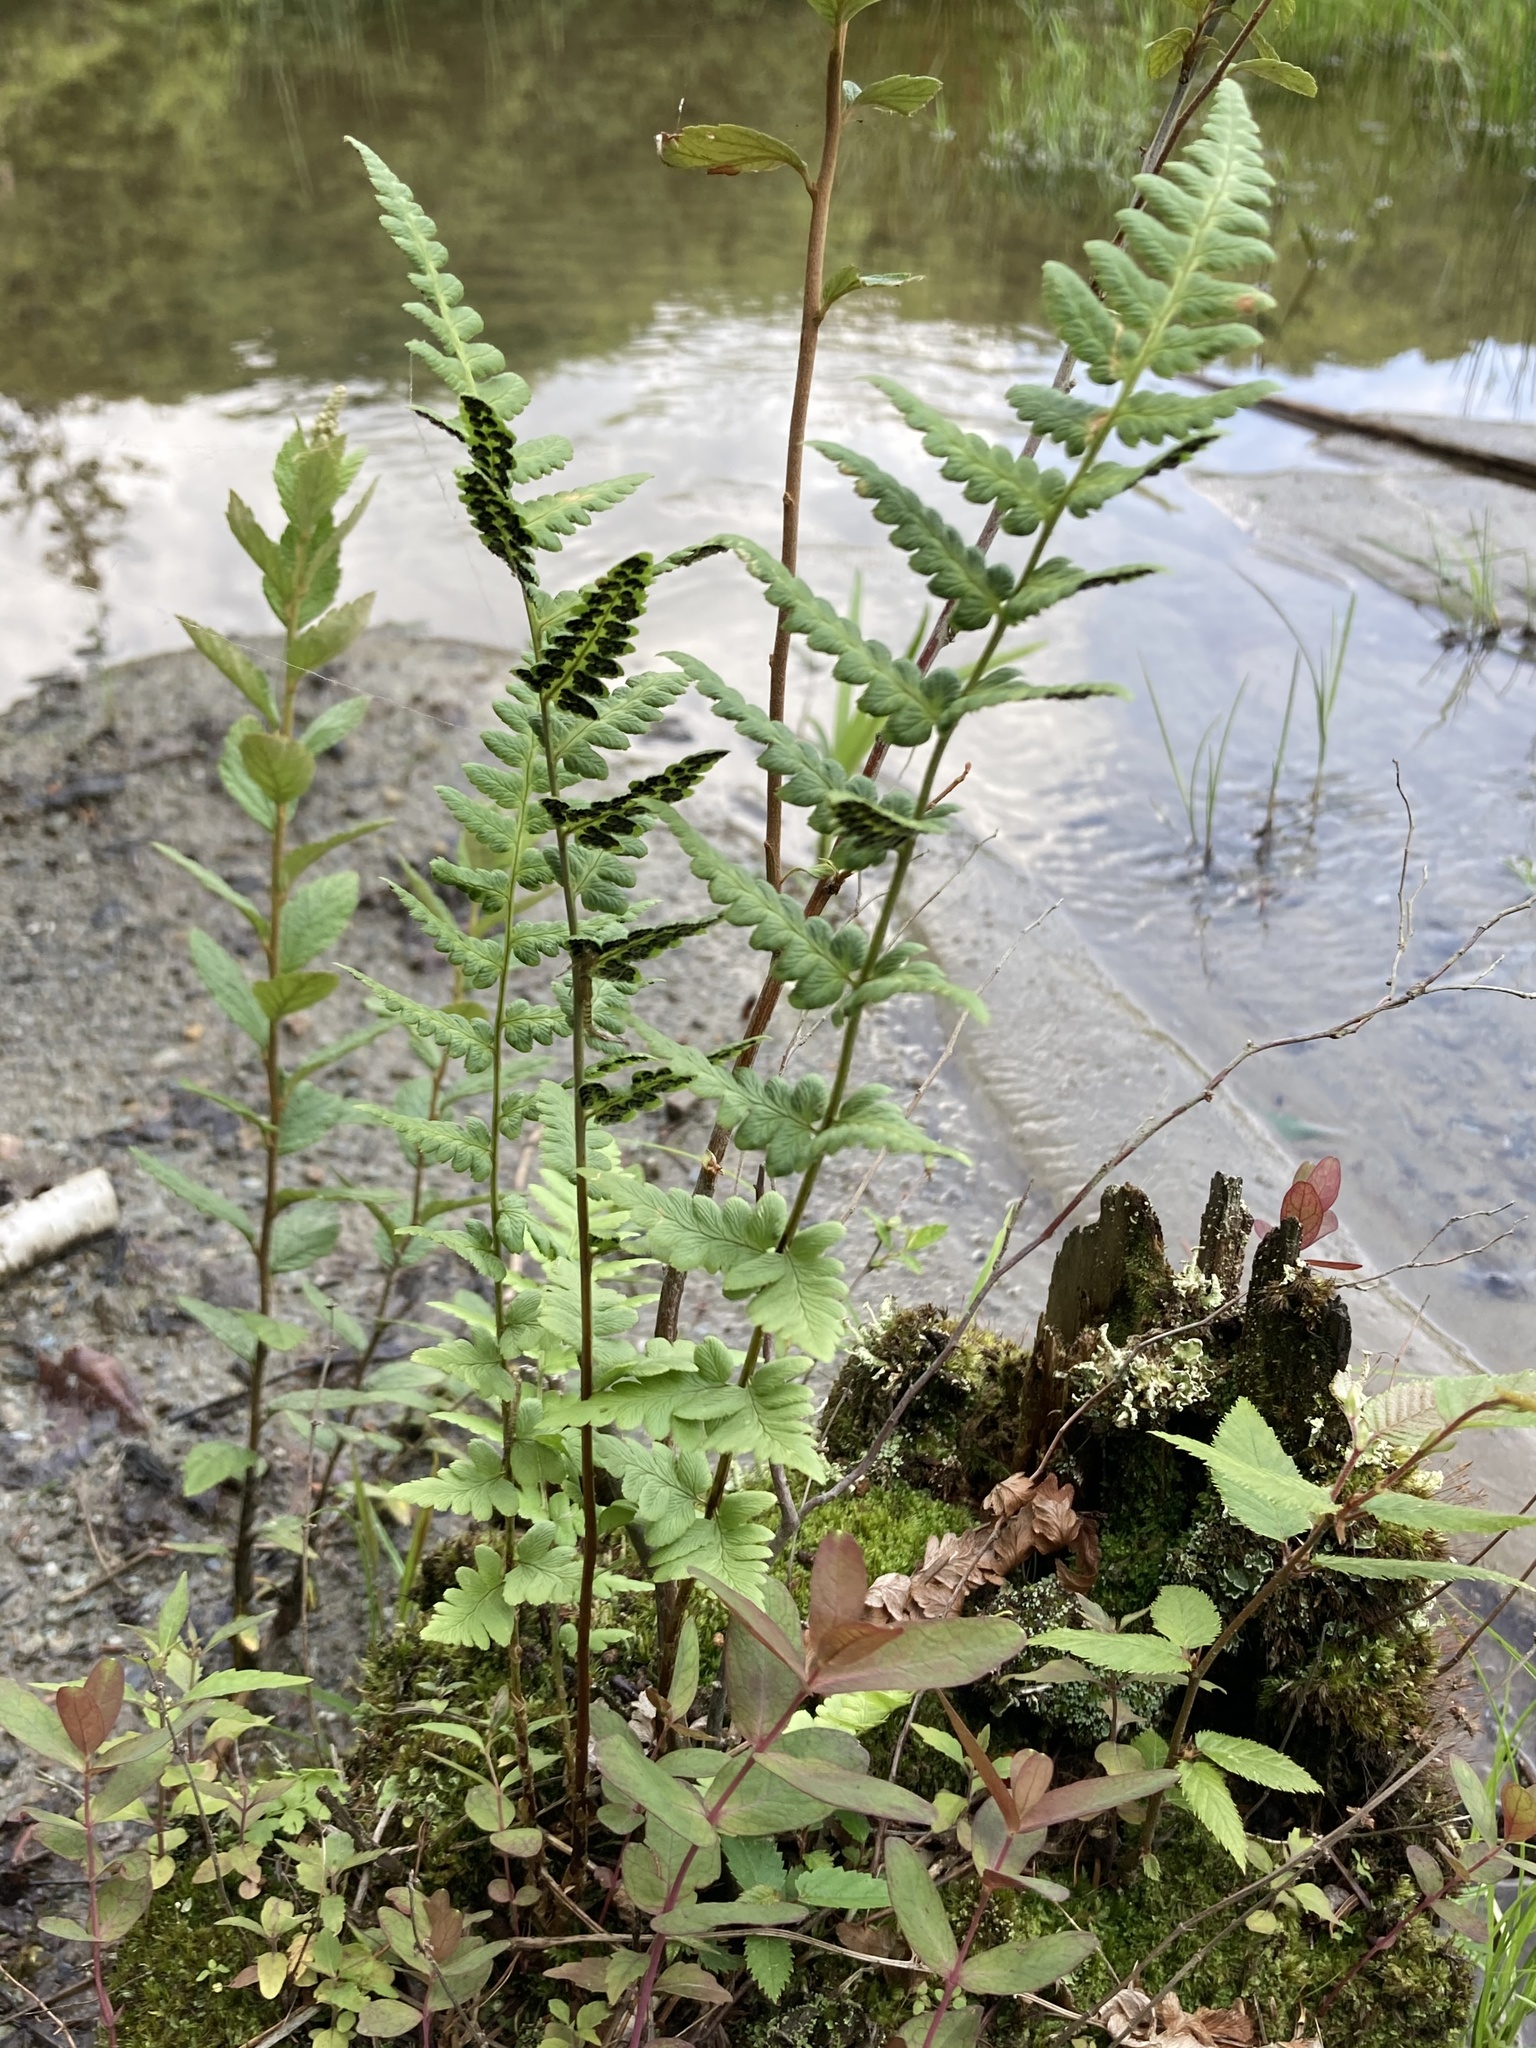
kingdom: Plantae
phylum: Tracheophyta
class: Polypodiopsida
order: Polypodiales
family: Dryopteridaceae
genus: Dryopteris
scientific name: Dryopteris cristata
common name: Crested wood fern
